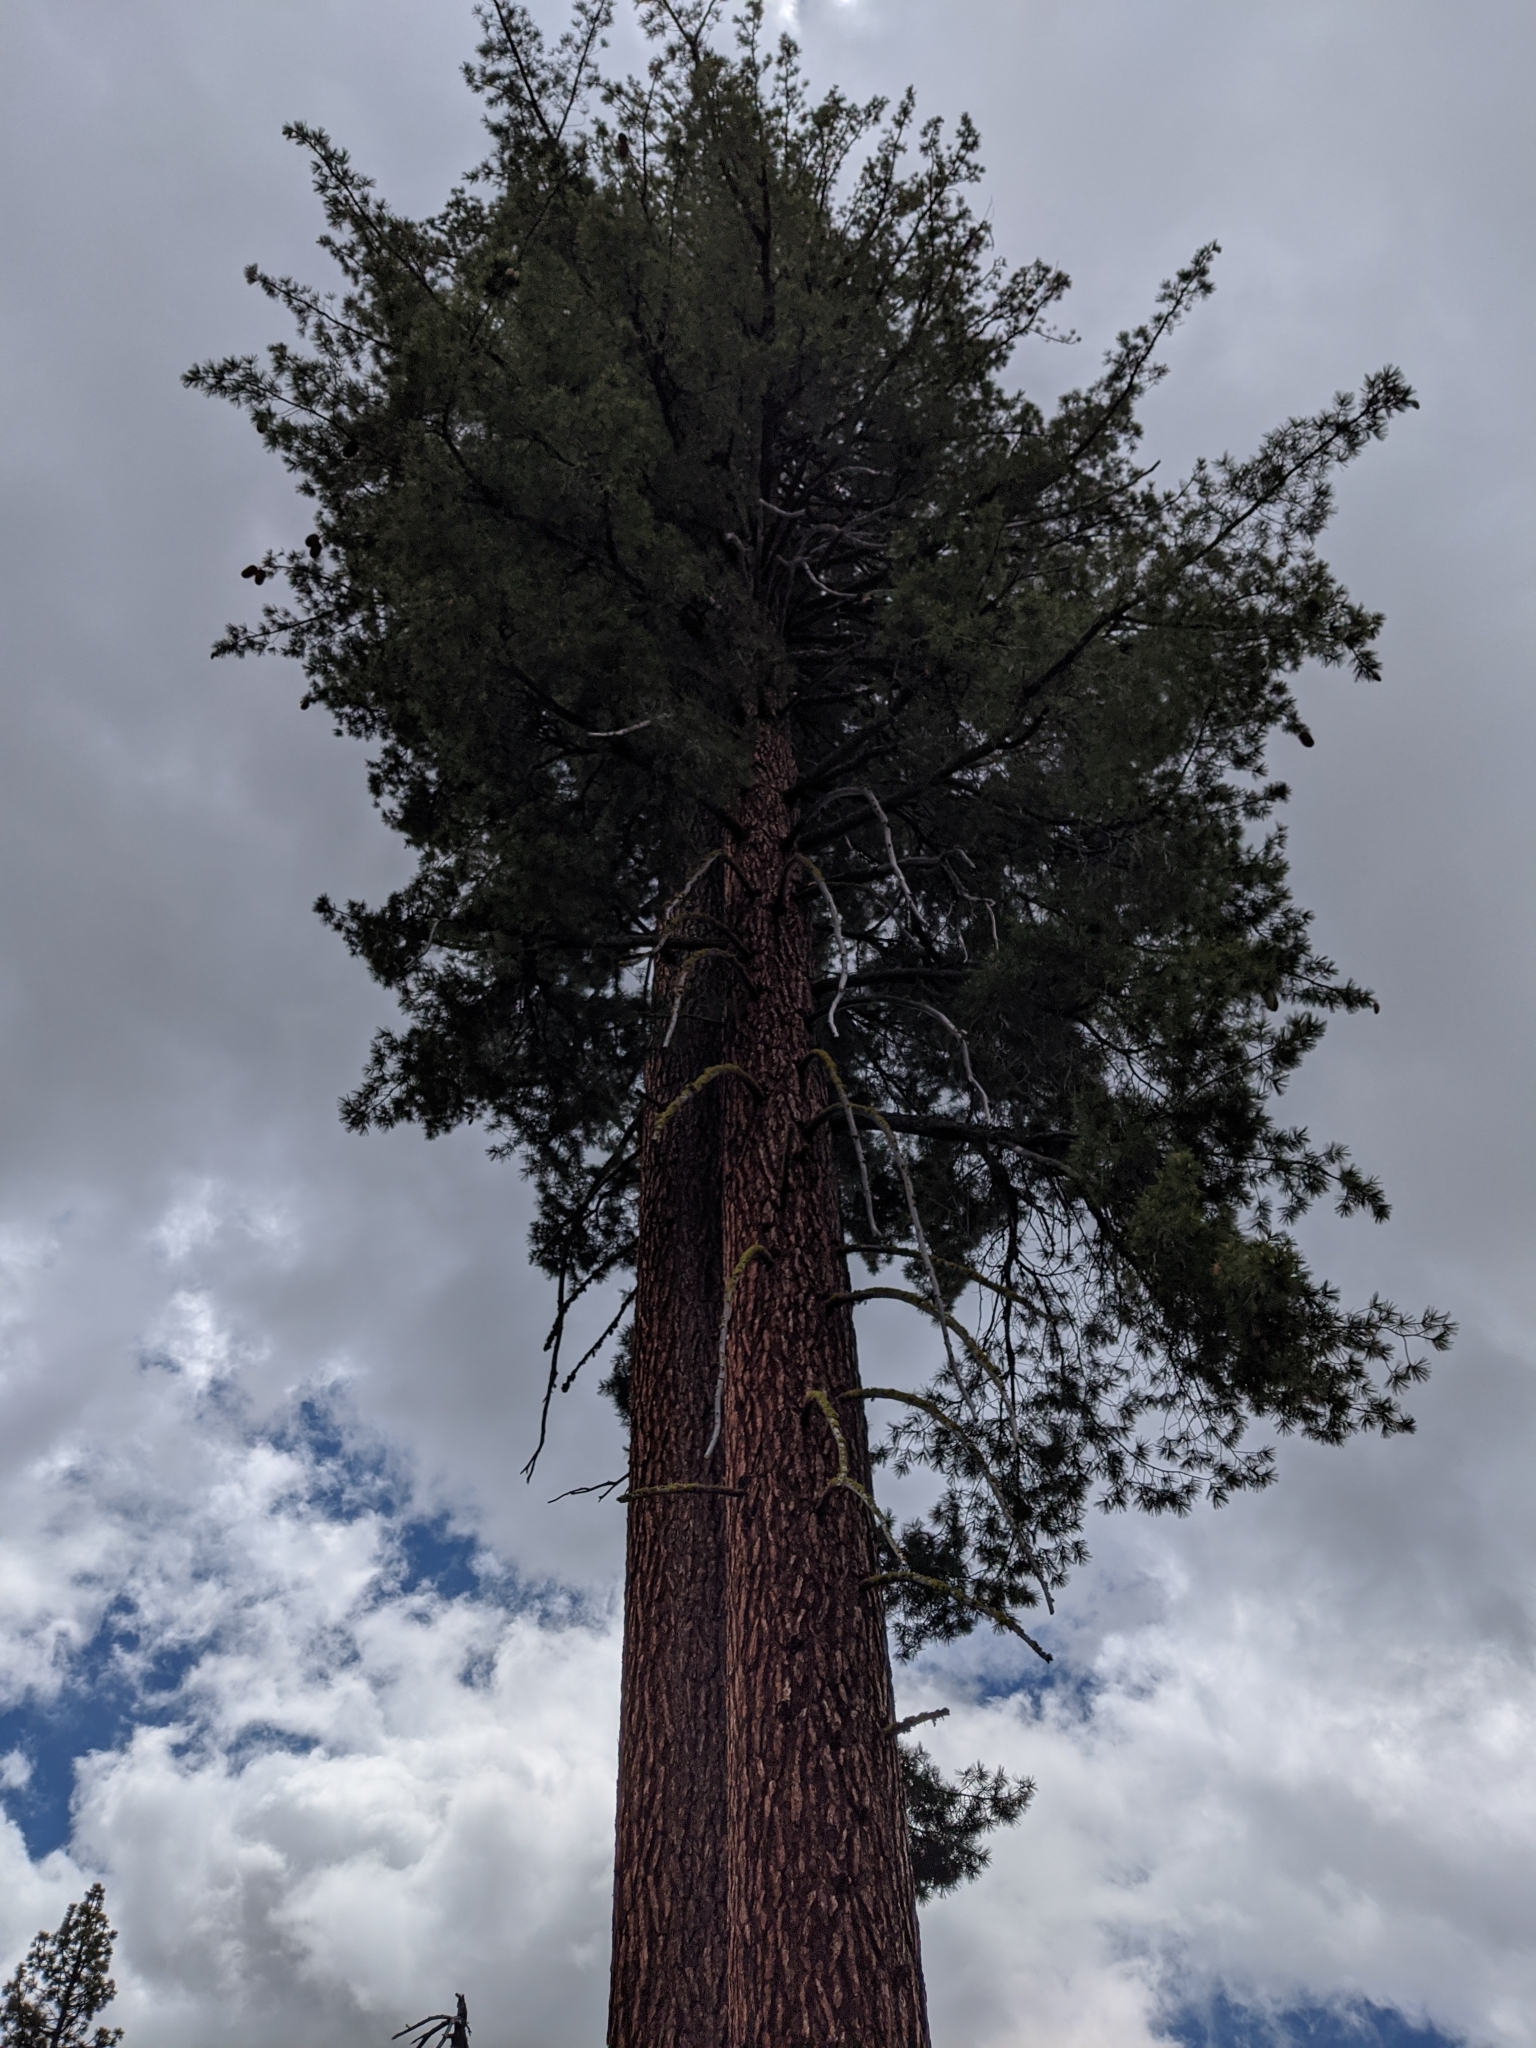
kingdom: Plantae
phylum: Tracheophyta
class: Pinopsida
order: Pinales
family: Pinaceae
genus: Pinus
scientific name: Pinus lambertiana
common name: Sugar pine
